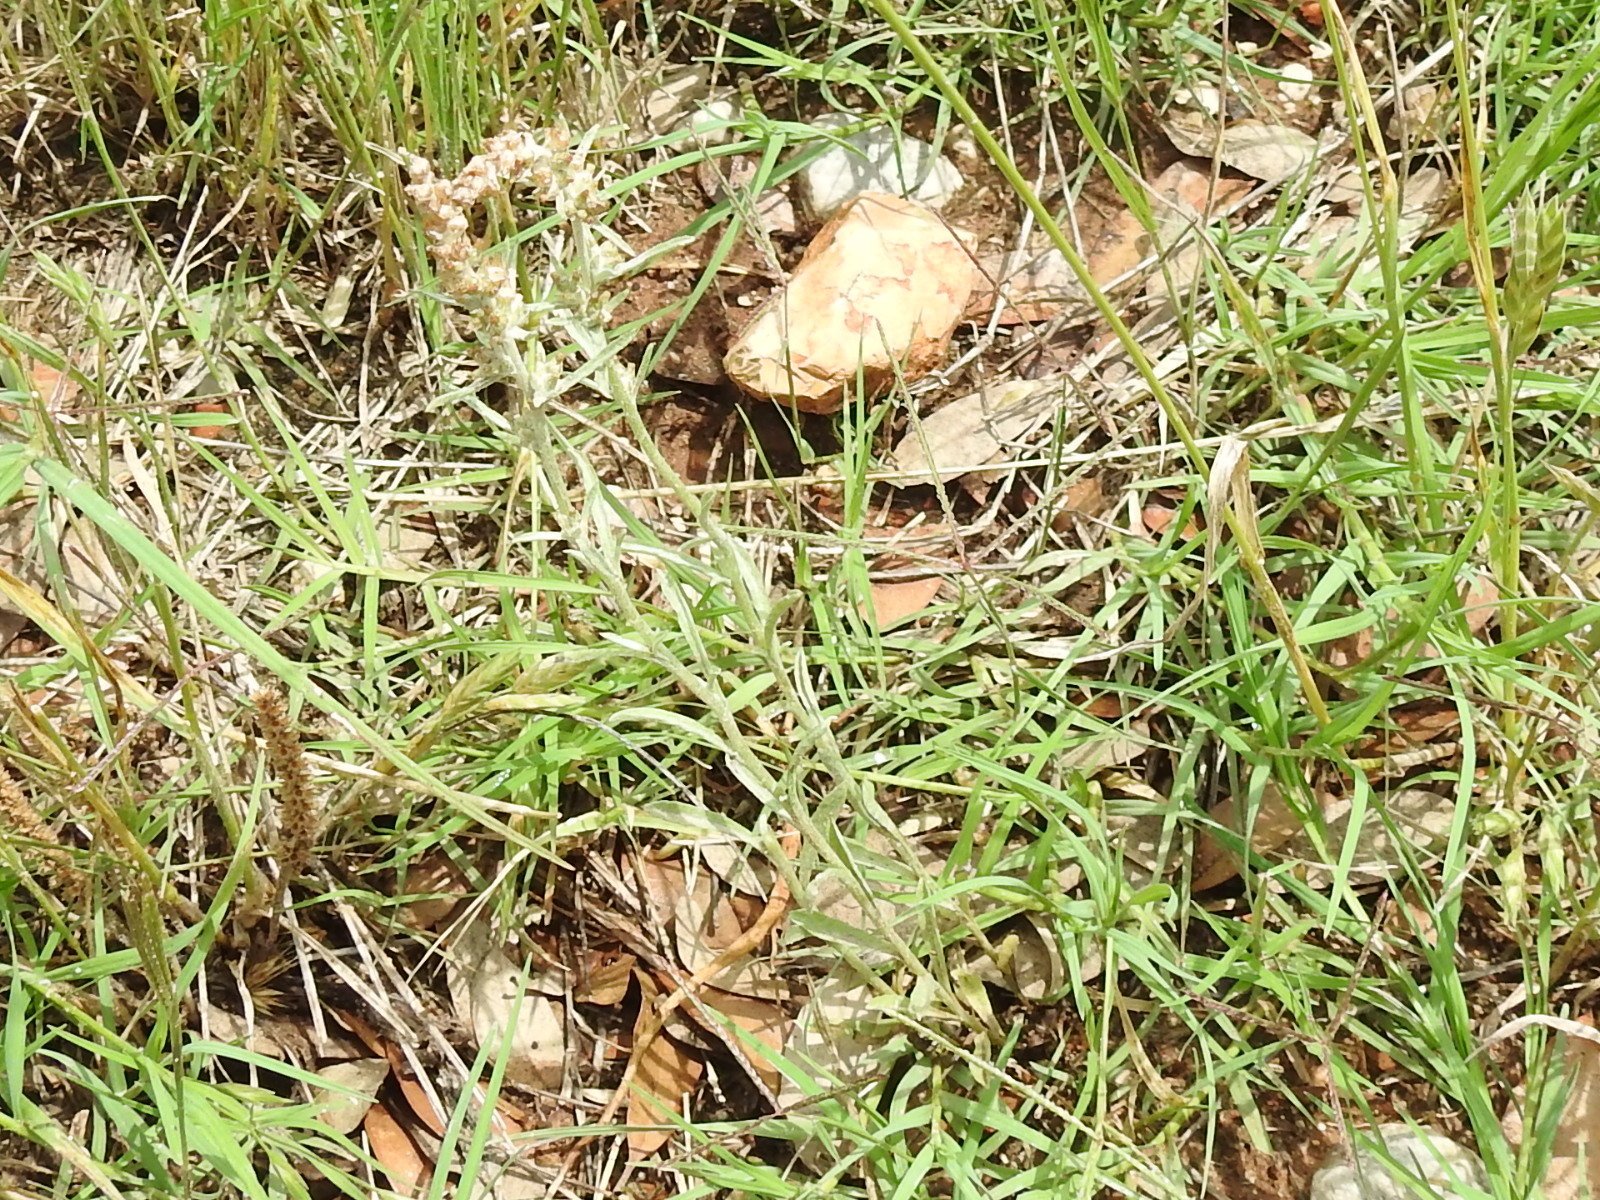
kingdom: Plantae
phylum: Tracheophyta
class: Magnoliopsida
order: Asterales
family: Asteraceae
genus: Gamochaeta
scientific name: Gamochaeta pensylvanica
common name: Pennsylvania everlasting
